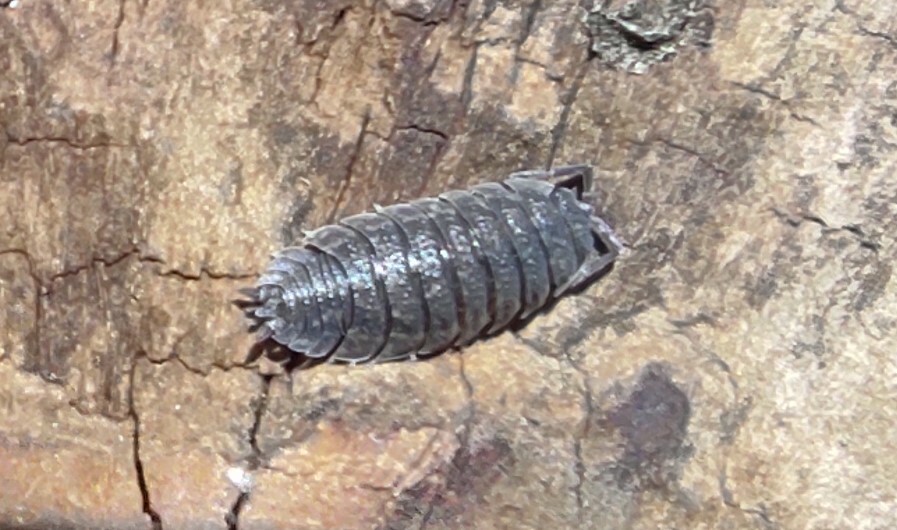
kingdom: Animalia
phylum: Arthropoda
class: Malacostraca
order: Isopoda
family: Porcellionidae
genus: Porcellio
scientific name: Porcellio scaber
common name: Common rough woodlouse
